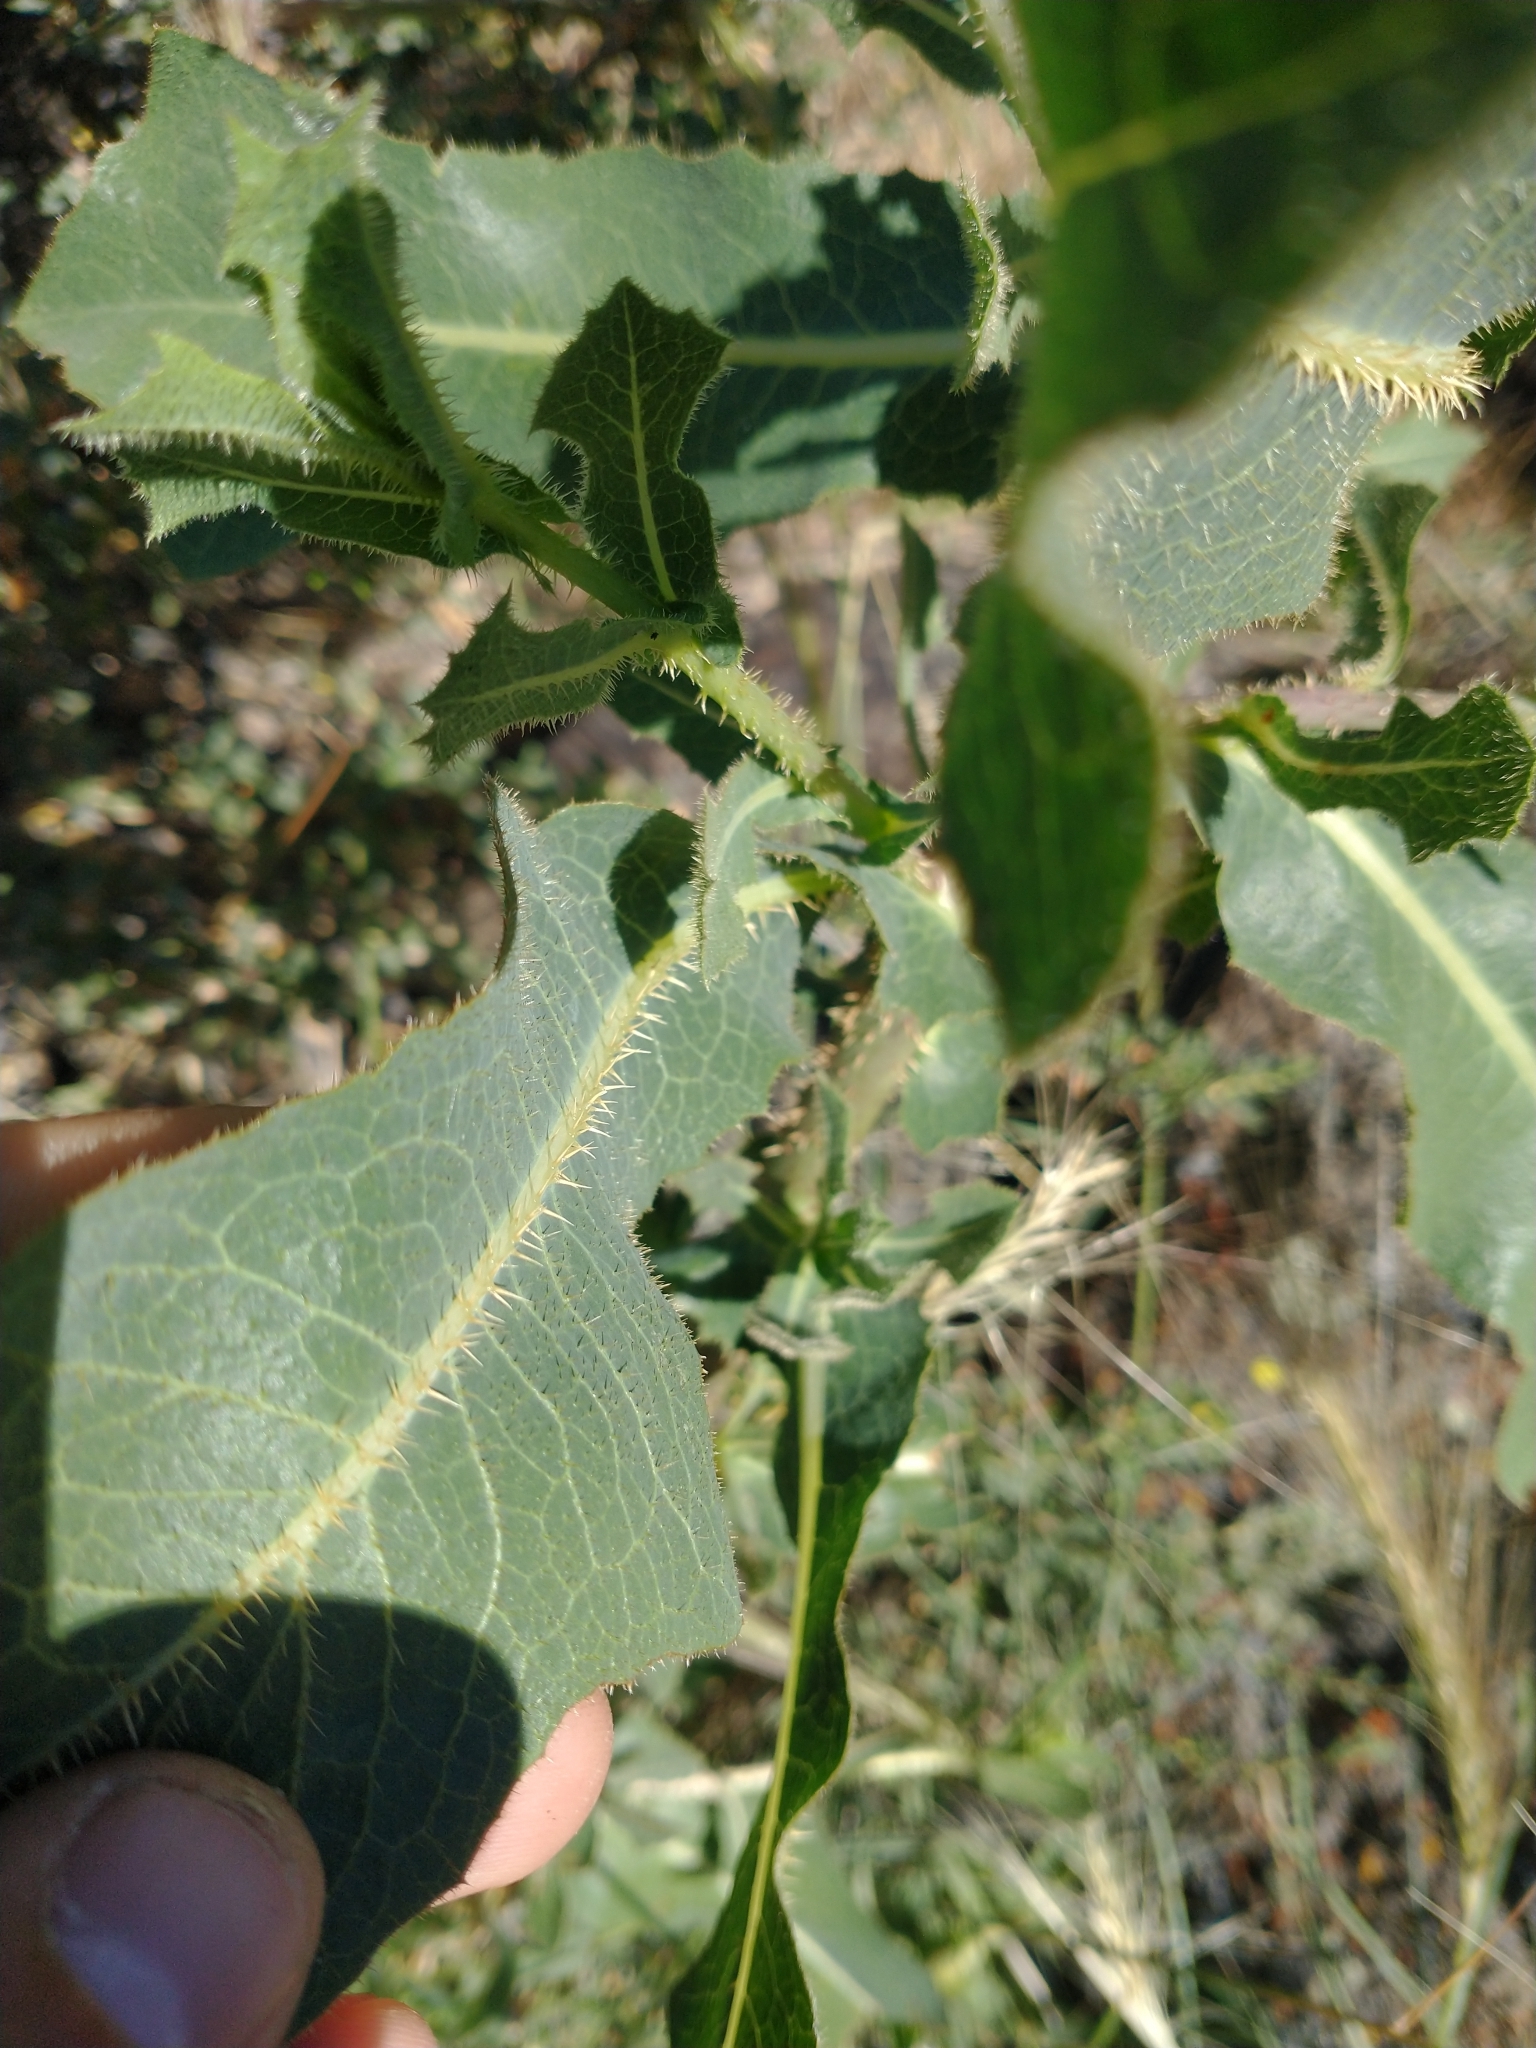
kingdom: Plantae
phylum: Tracheophyta
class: Magnoliopsida
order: Asterales
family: Asteraceae
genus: Lactuca
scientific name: Lactuca serriola
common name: Prickly lettuce
